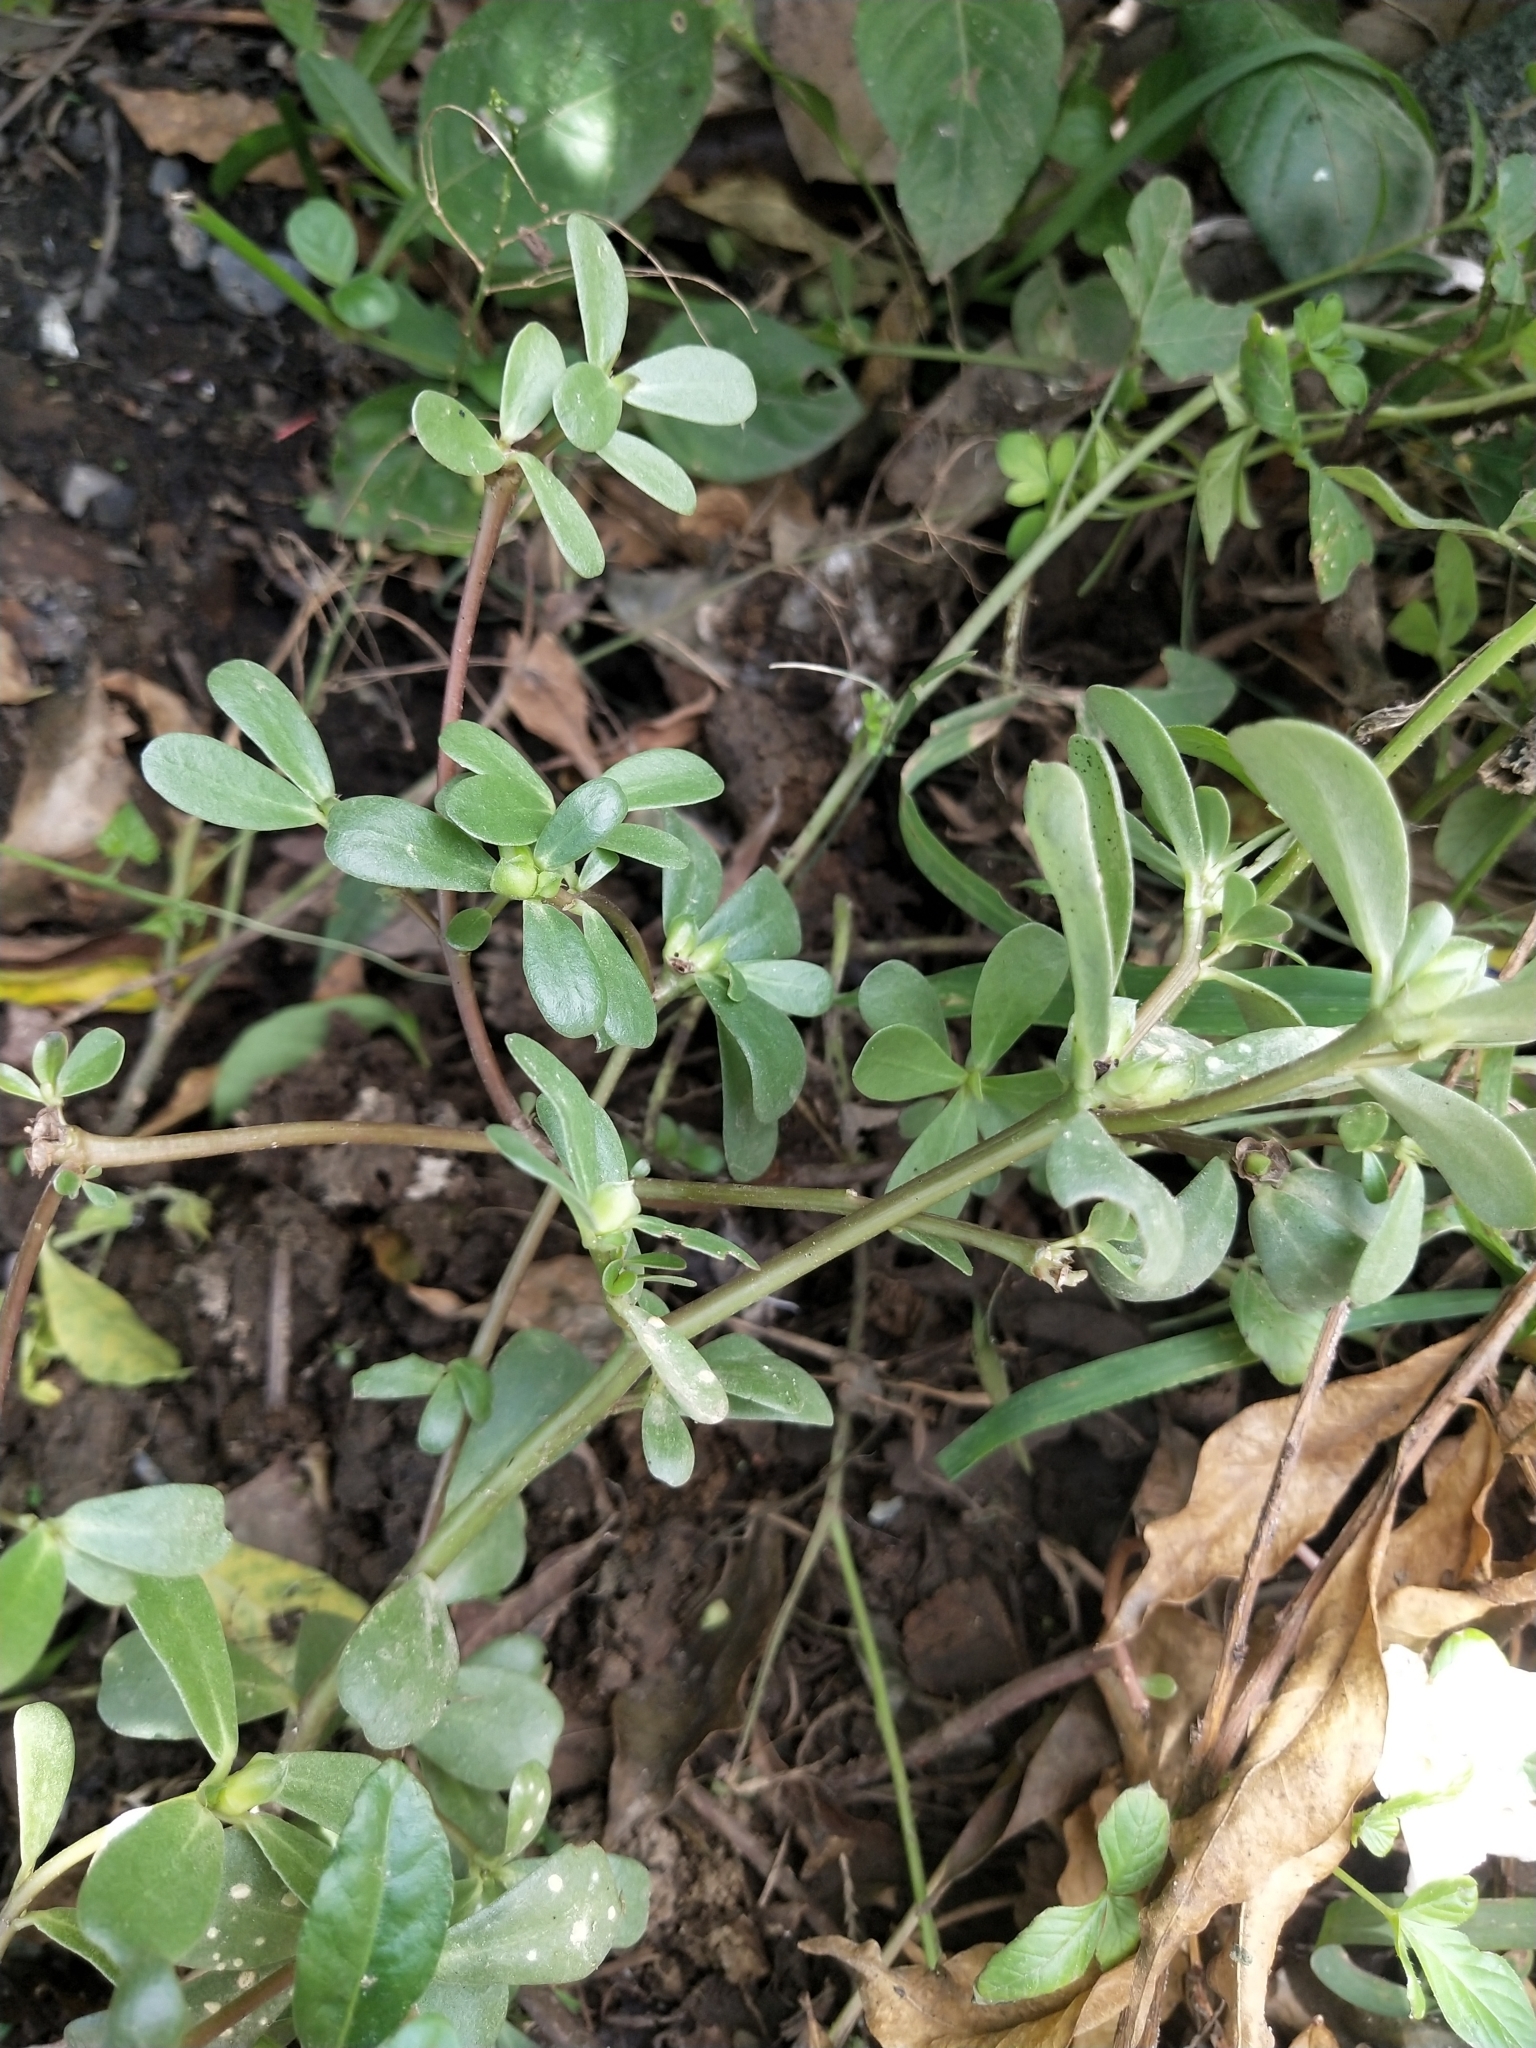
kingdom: Plantae
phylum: Tracheophyta
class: Magnoliopsida
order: Caryophyllales
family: Portulacaceae
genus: Portulaca
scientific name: Portulaca oleracea
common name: Common purslane
